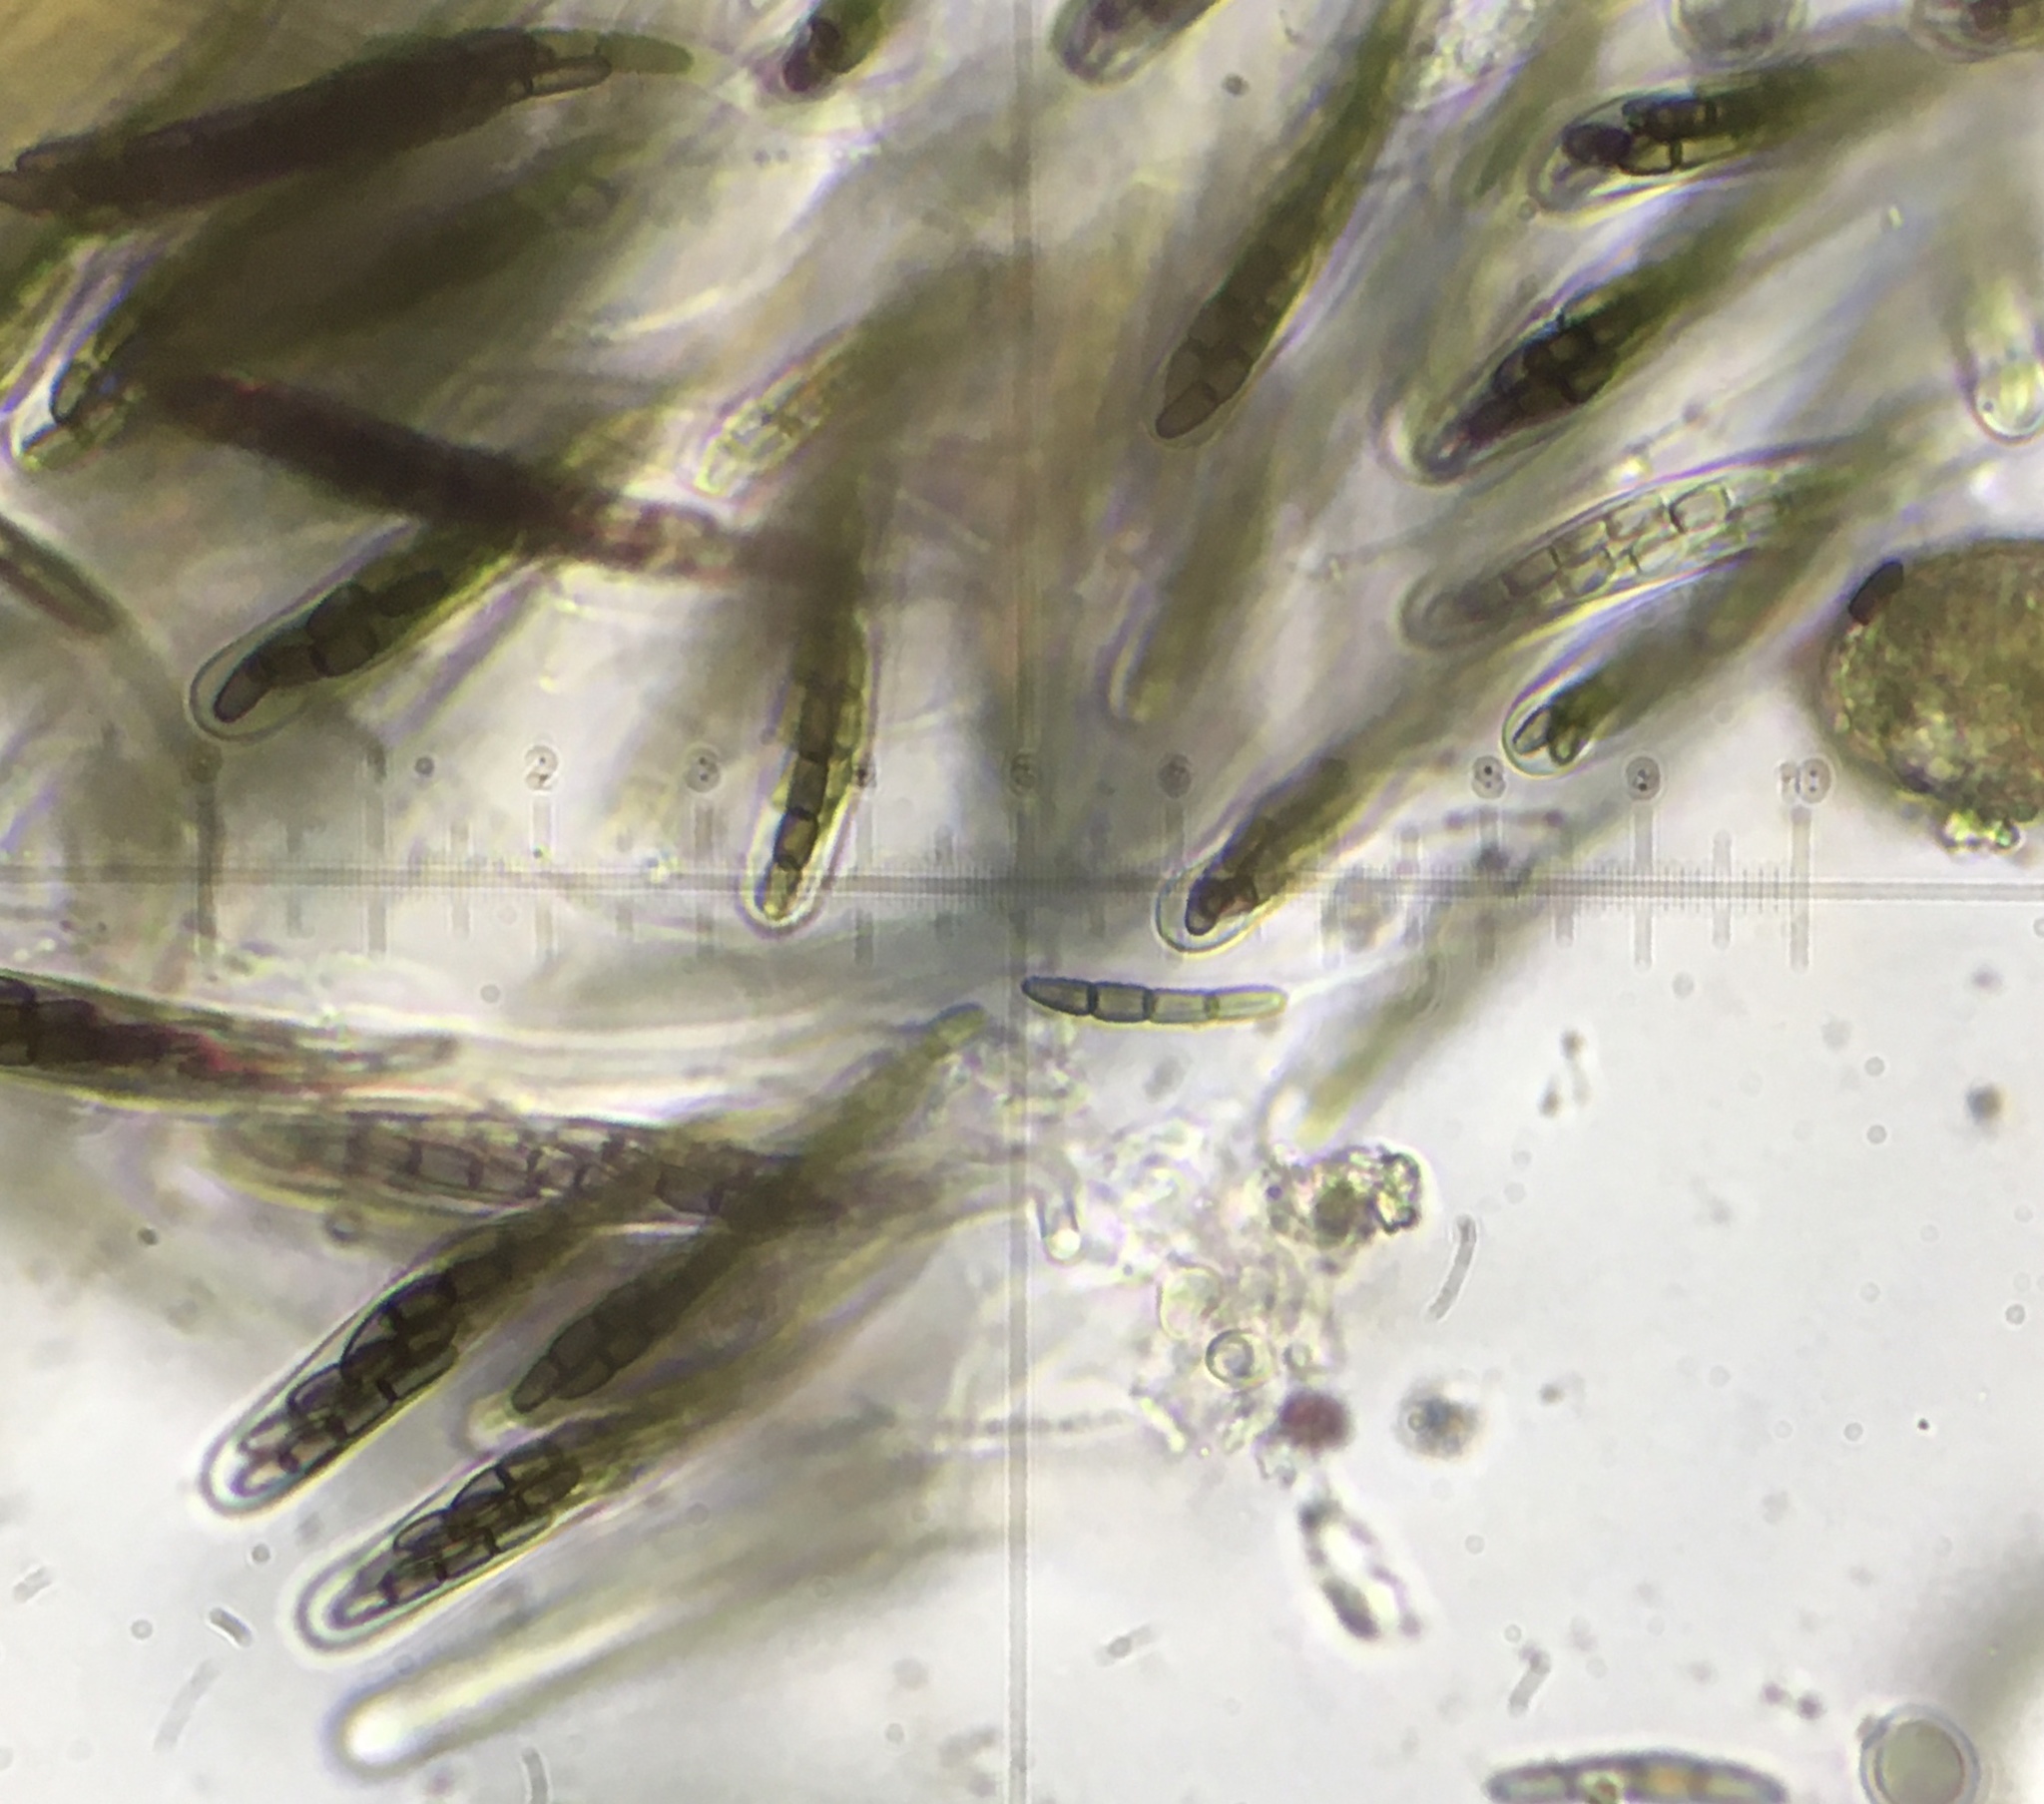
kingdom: Fungi
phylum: Ascomycota
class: Dothideomycetes
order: Pleosporales
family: Sporormiaceae
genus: Sporormiella
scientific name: Sporormiella minutisperma
